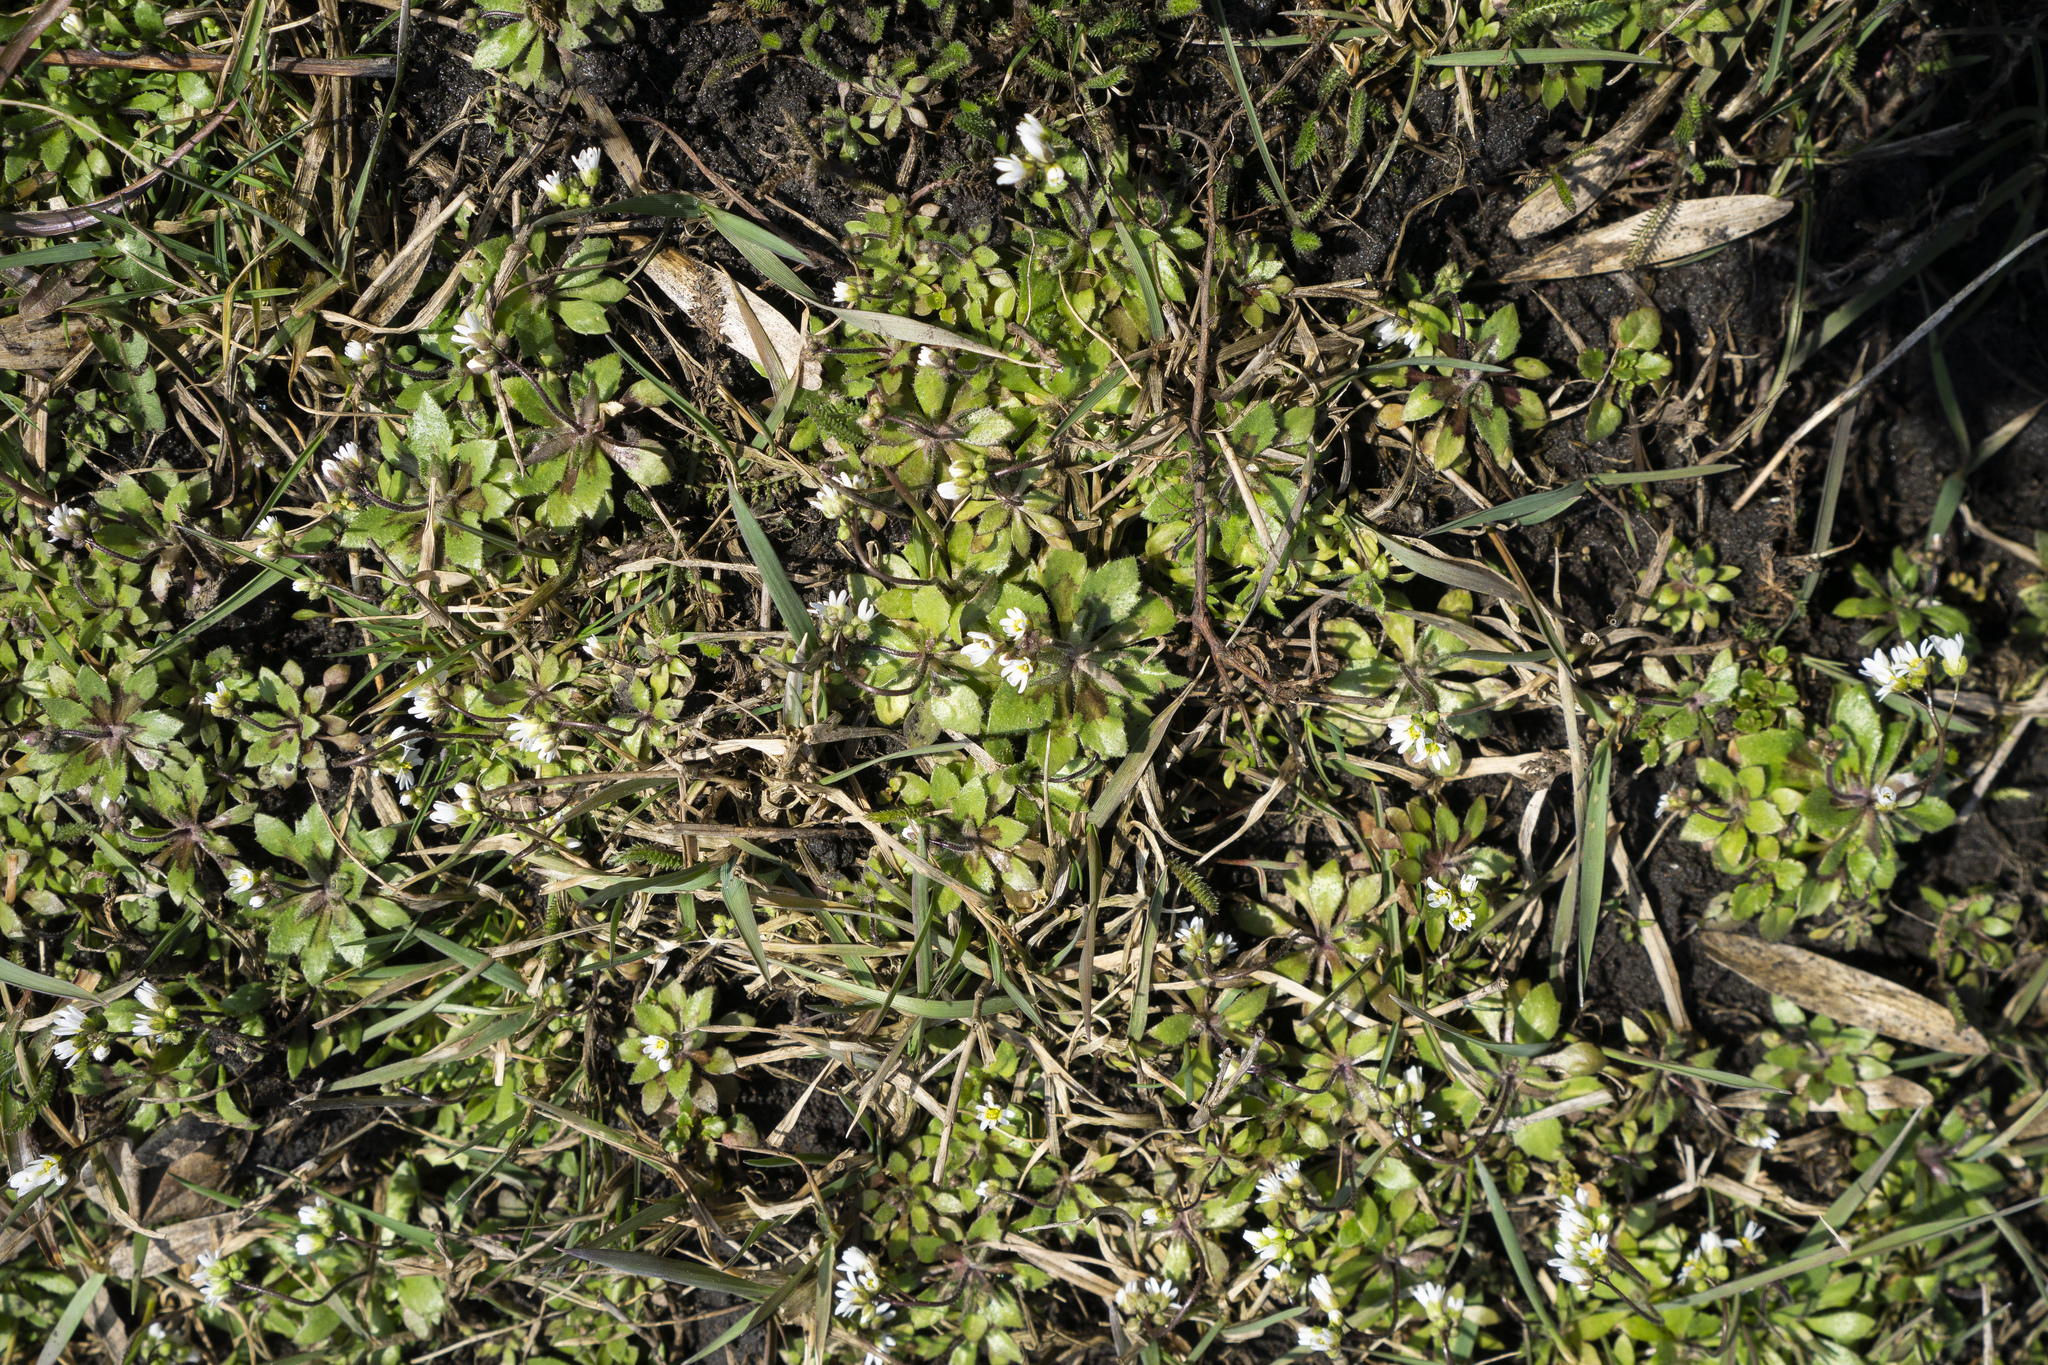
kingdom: Plantae
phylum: Tracheophyta
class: Magnoliopsida
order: Brassicales
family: Brassicaceae
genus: Draba
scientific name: Draba verna
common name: Spring draba
